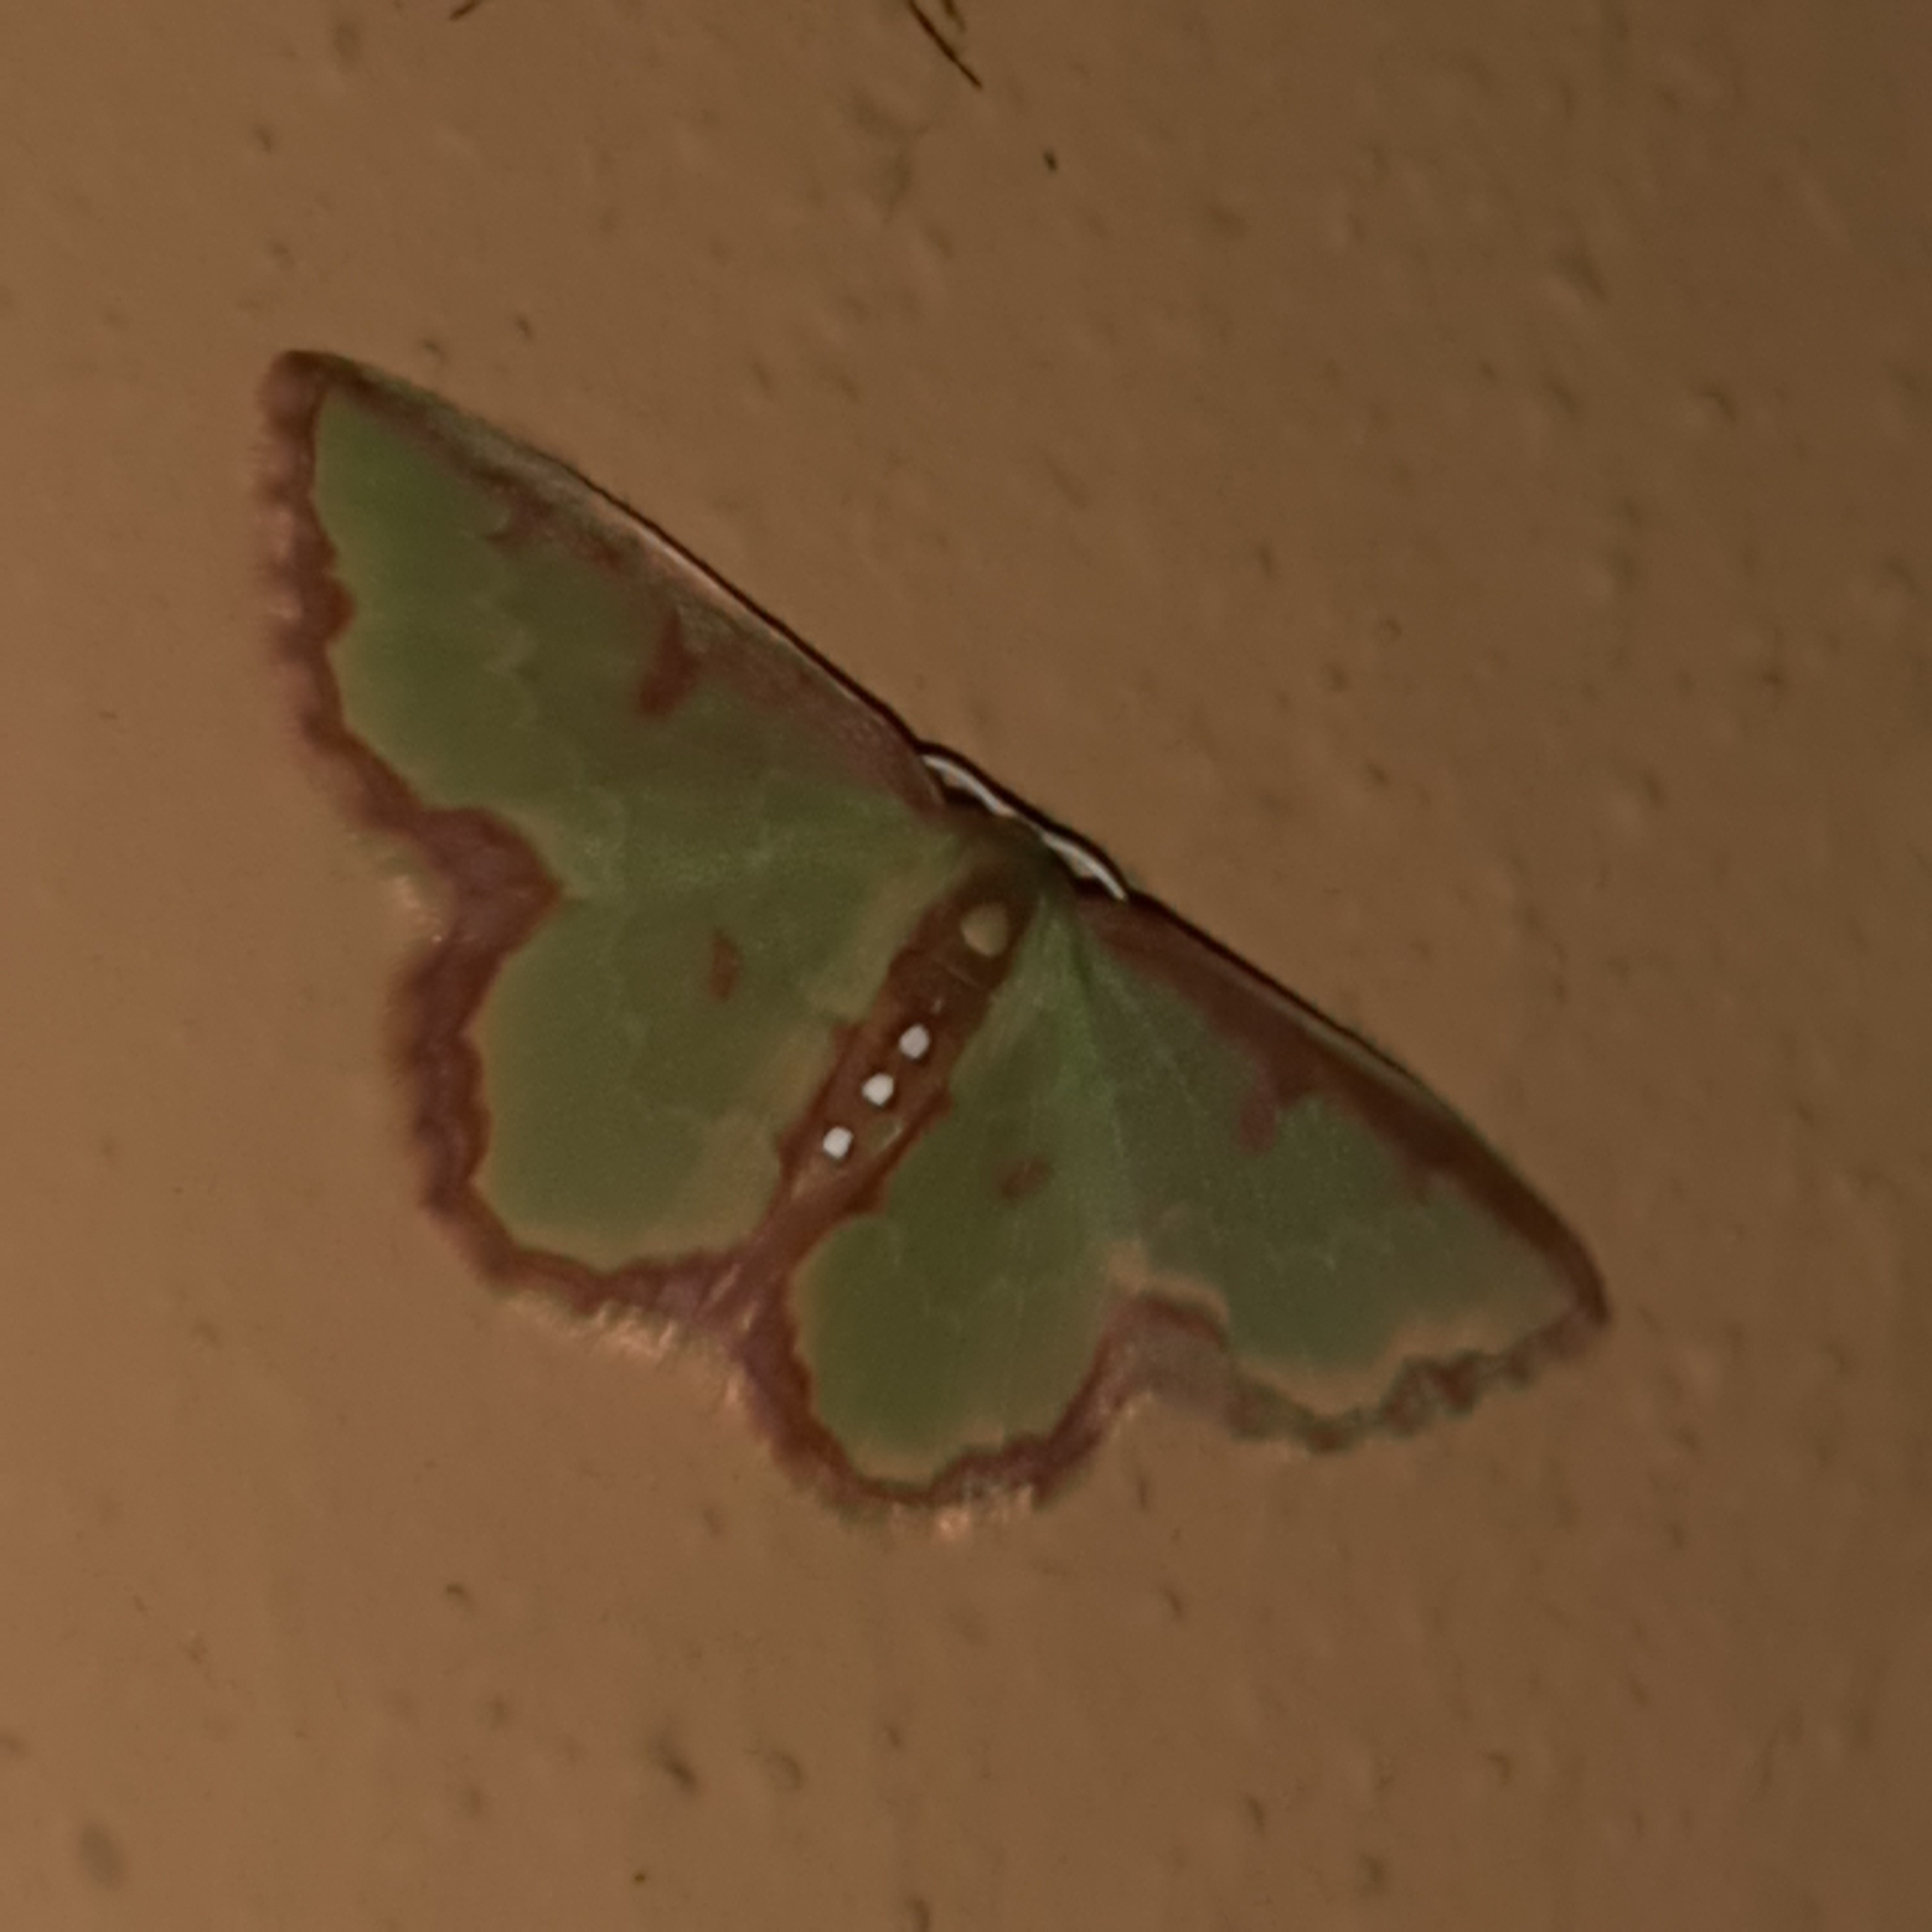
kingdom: Animalia
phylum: Arthropoda
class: Insecta
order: Lepidoptera
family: Geometridae
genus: Synchlora
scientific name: Synchlora dependens
